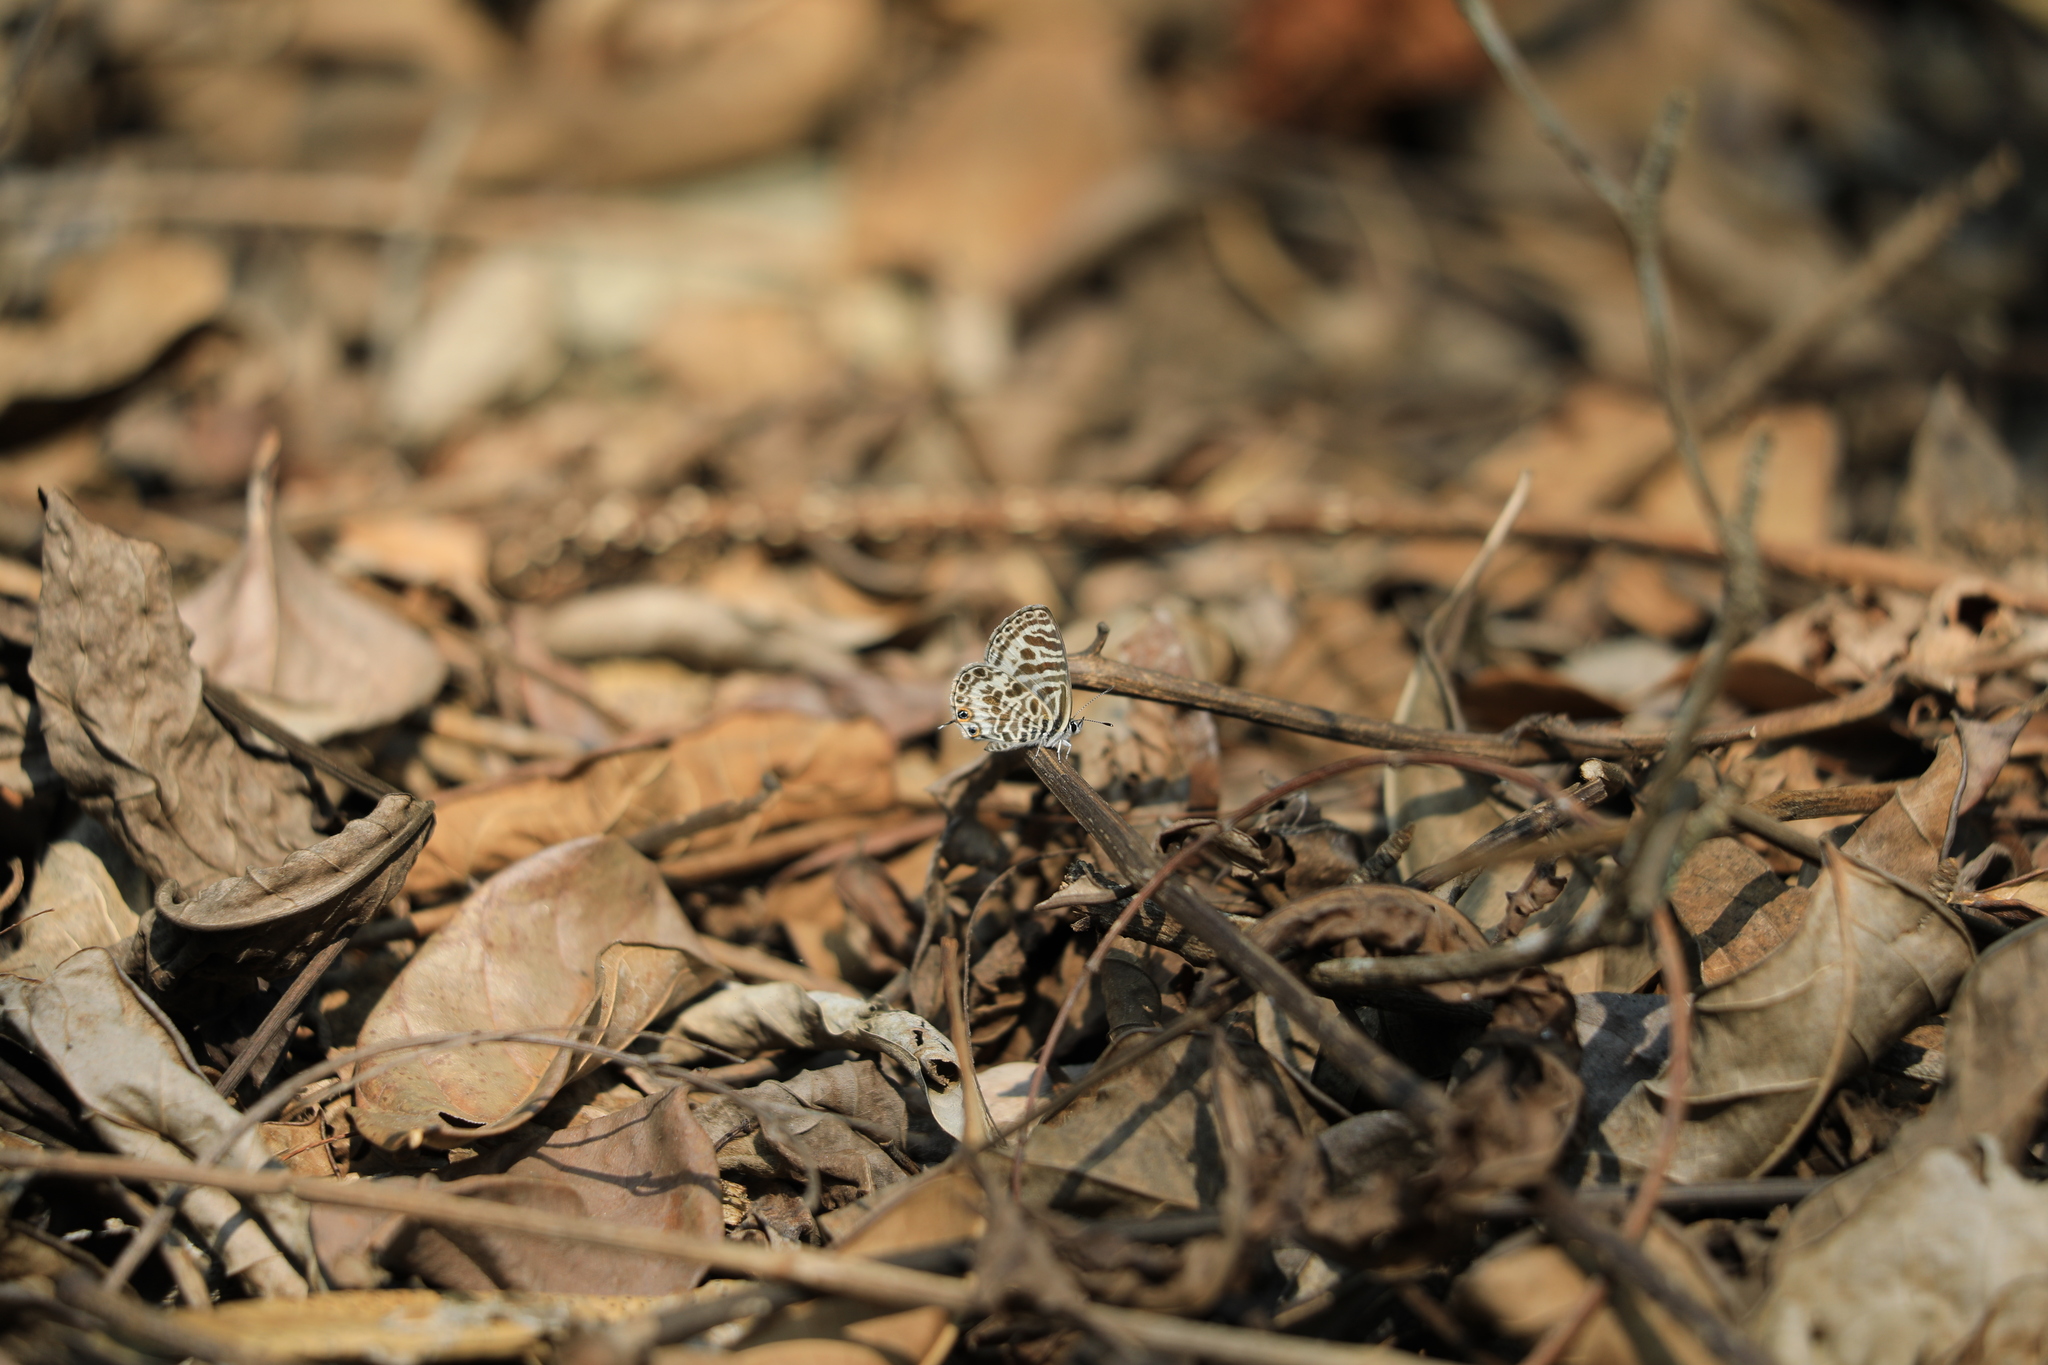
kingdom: Animalia
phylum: Arthropoda
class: Insecta
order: Lepidoptera
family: Lycaenidae
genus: Leptotes
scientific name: Leptotes plinius
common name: Zebra blue
